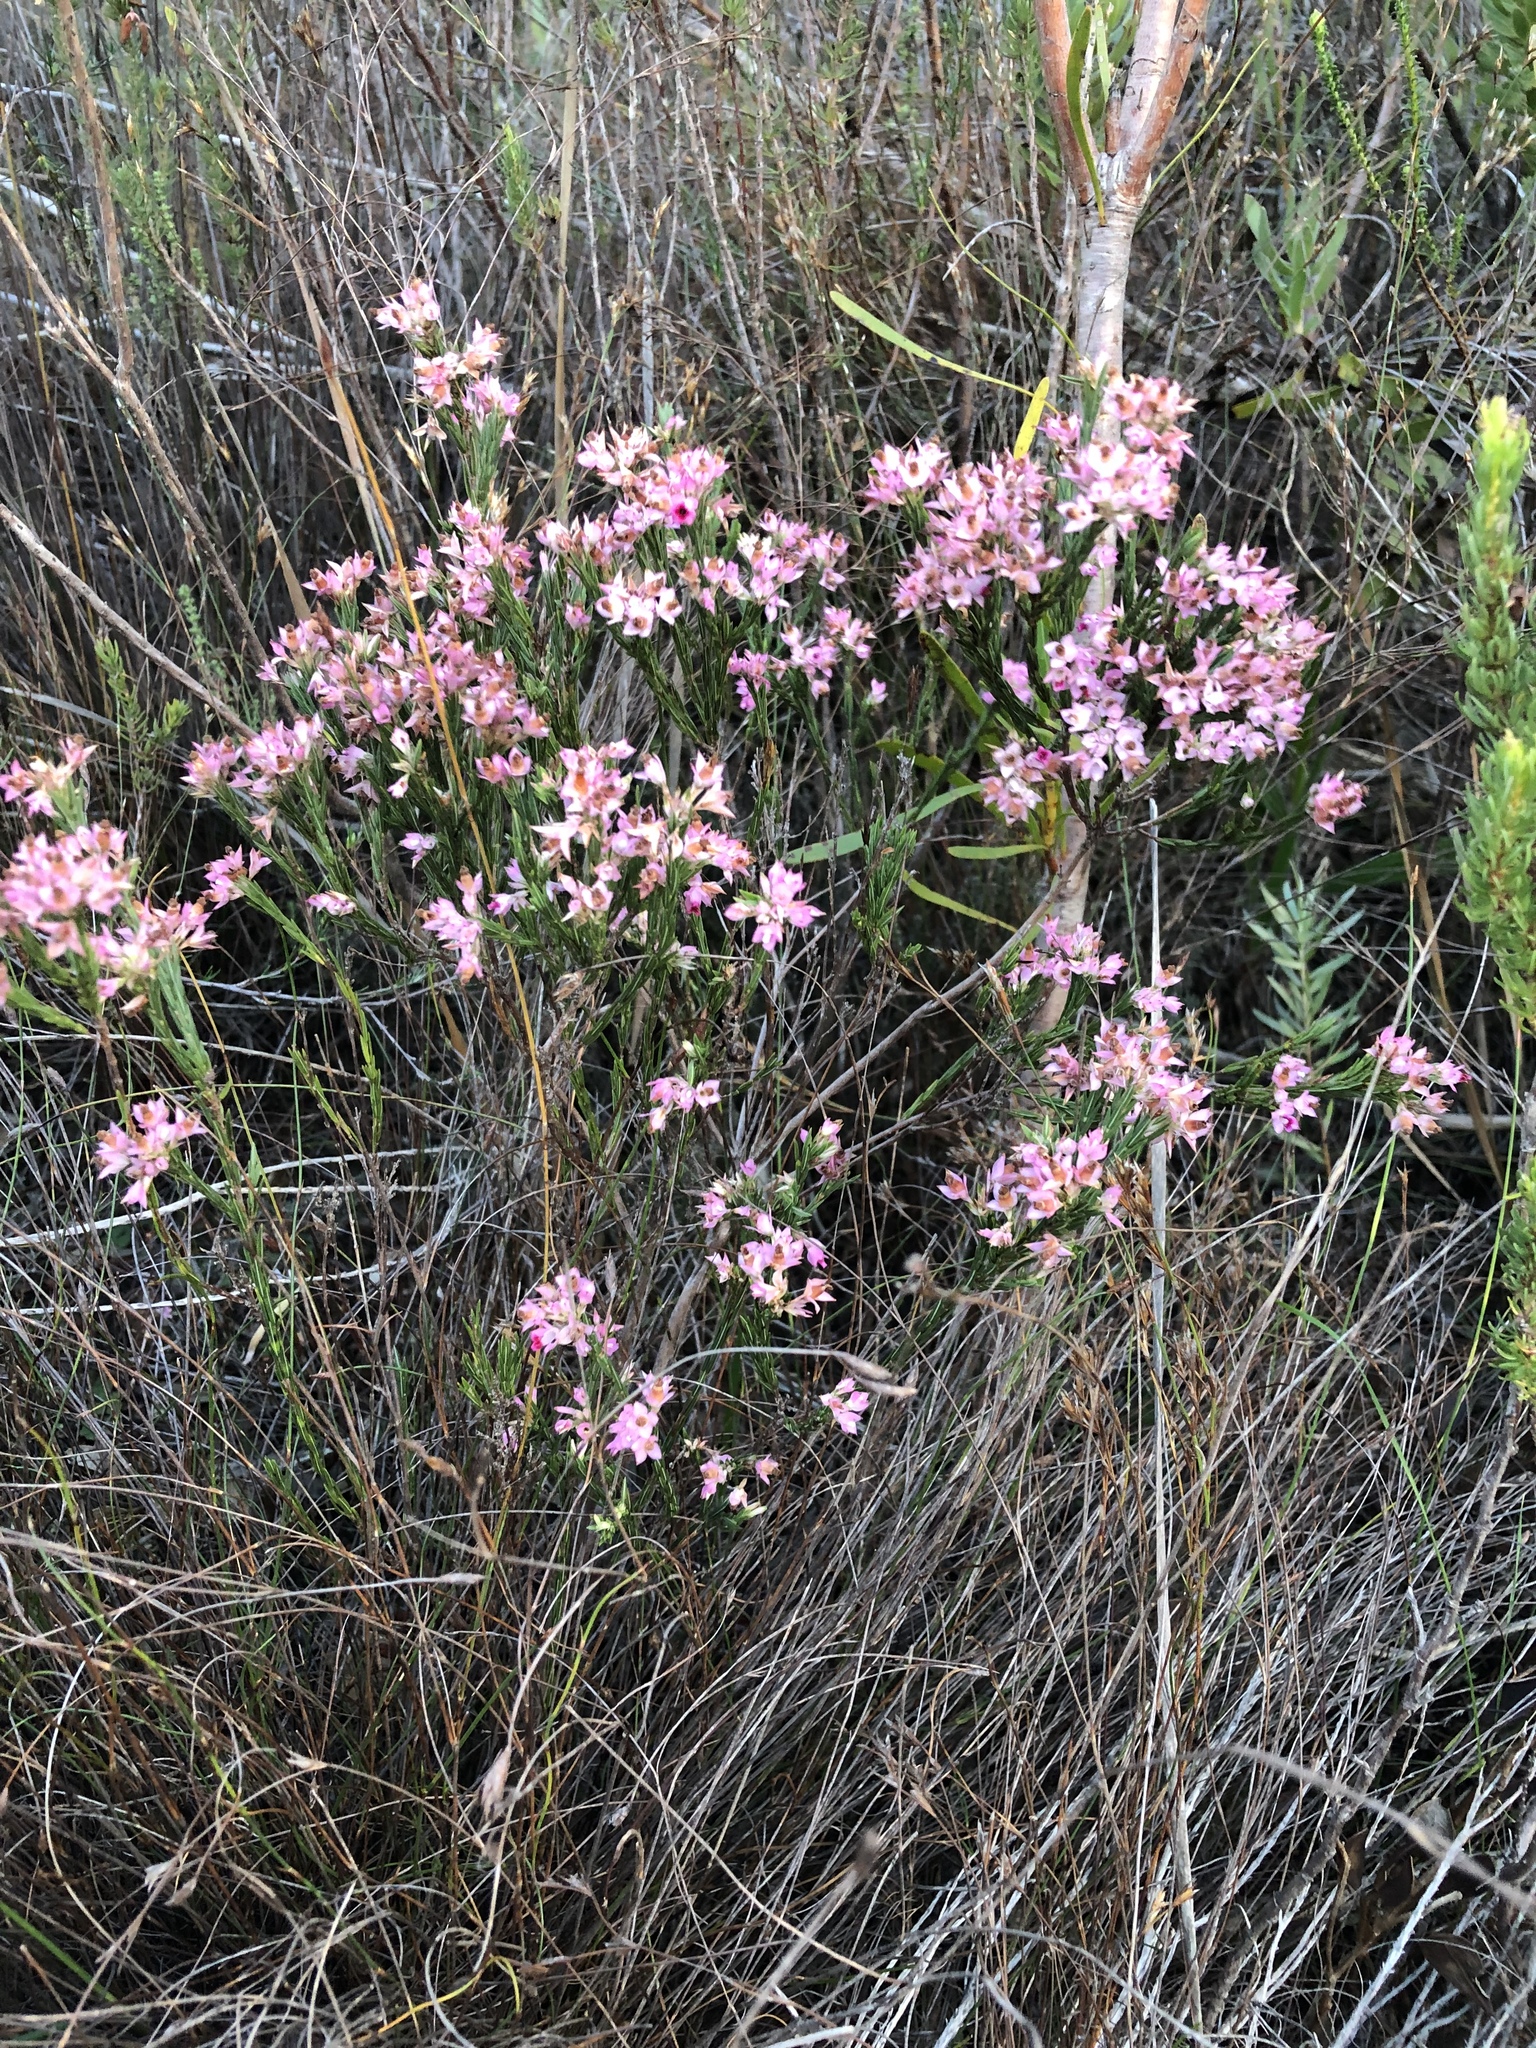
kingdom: Plantae
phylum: Tracheophyta
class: Magnoliopsida
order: Ericales
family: Ericaceae
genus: Erica
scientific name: Erica taxifolia
